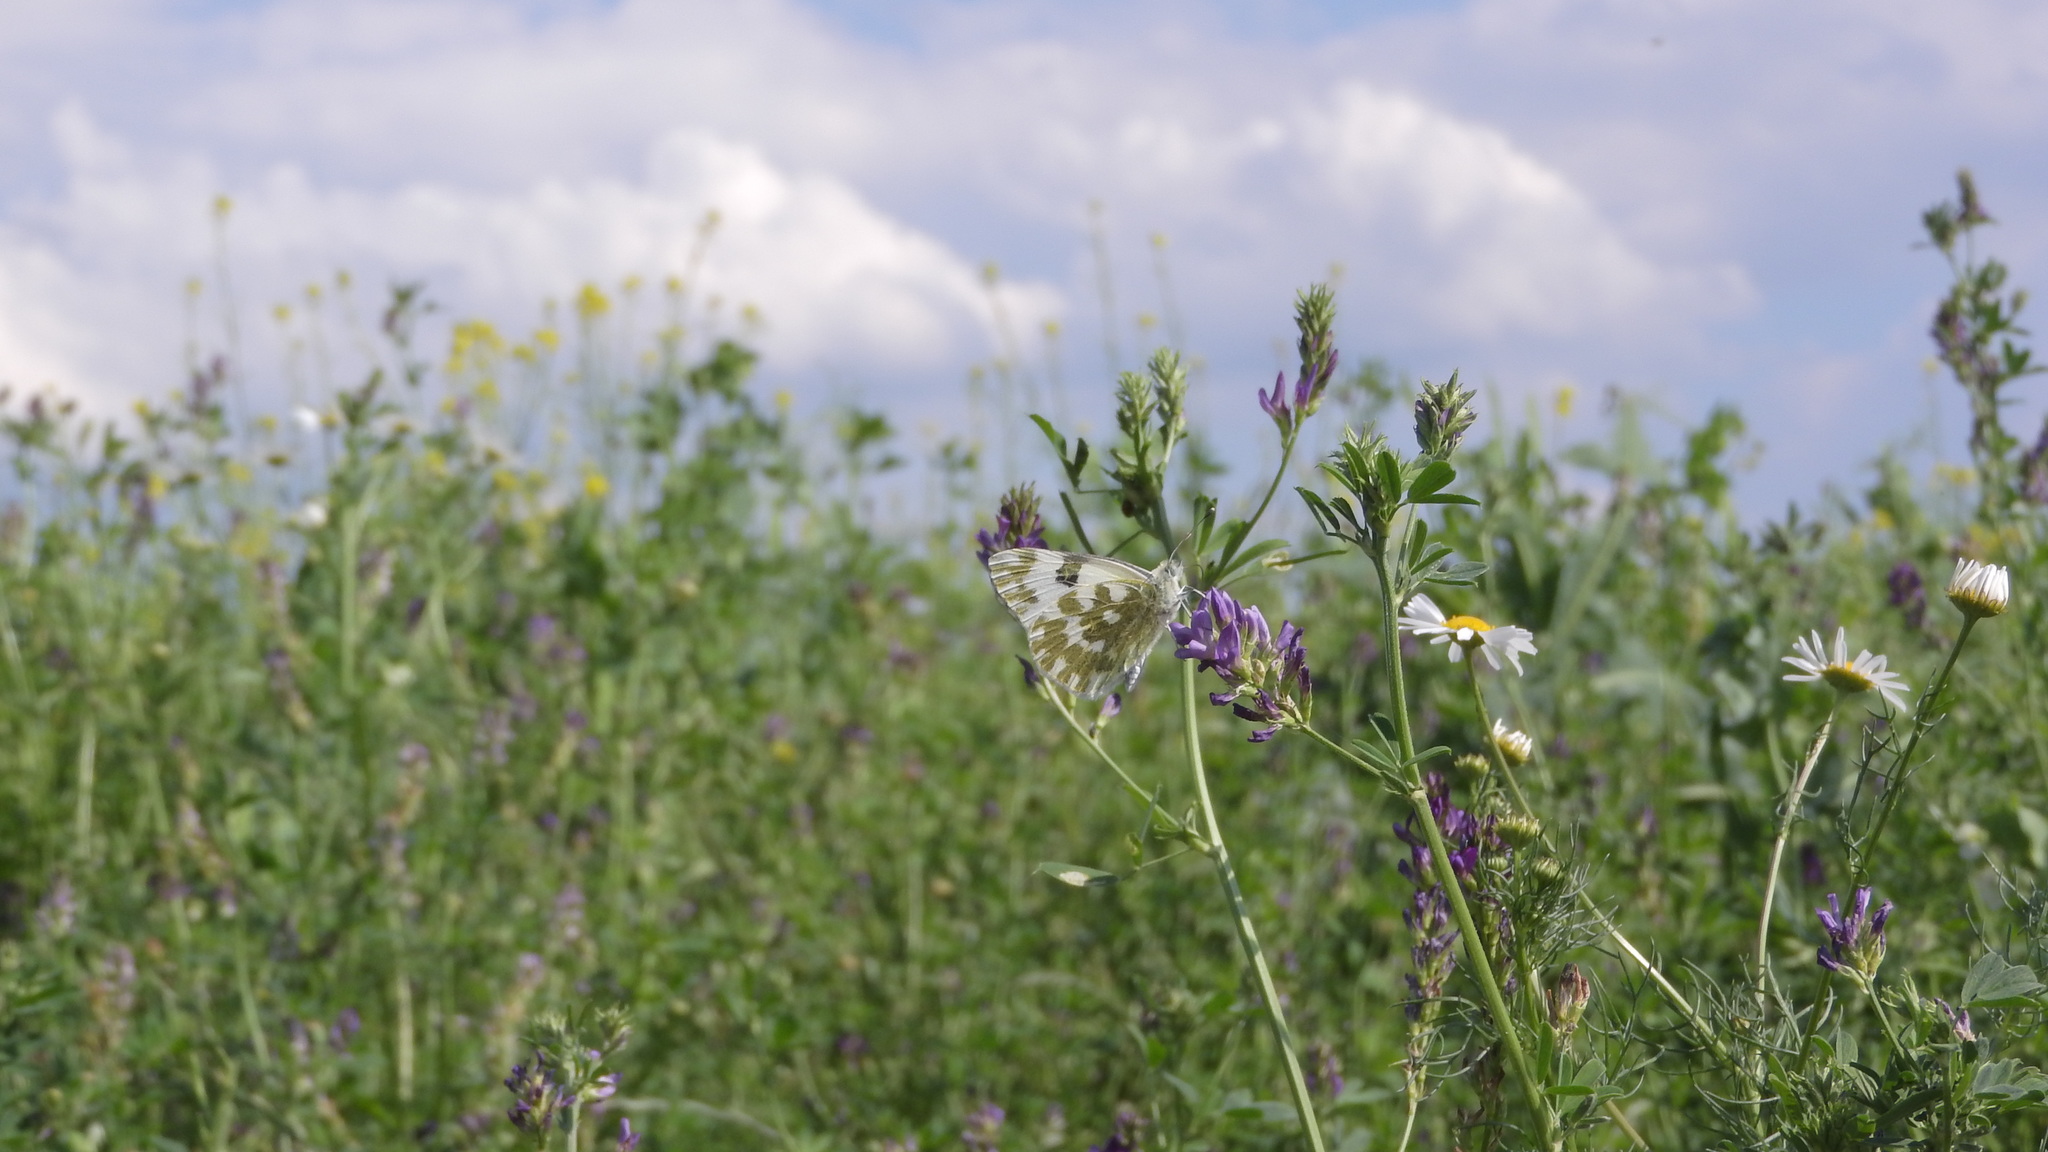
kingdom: Animalia
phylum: Arthropoda
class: Insecta
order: Lepidoptera
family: Pieridae
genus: Pontia
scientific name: Pontia edusa
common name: Eastern bath white
